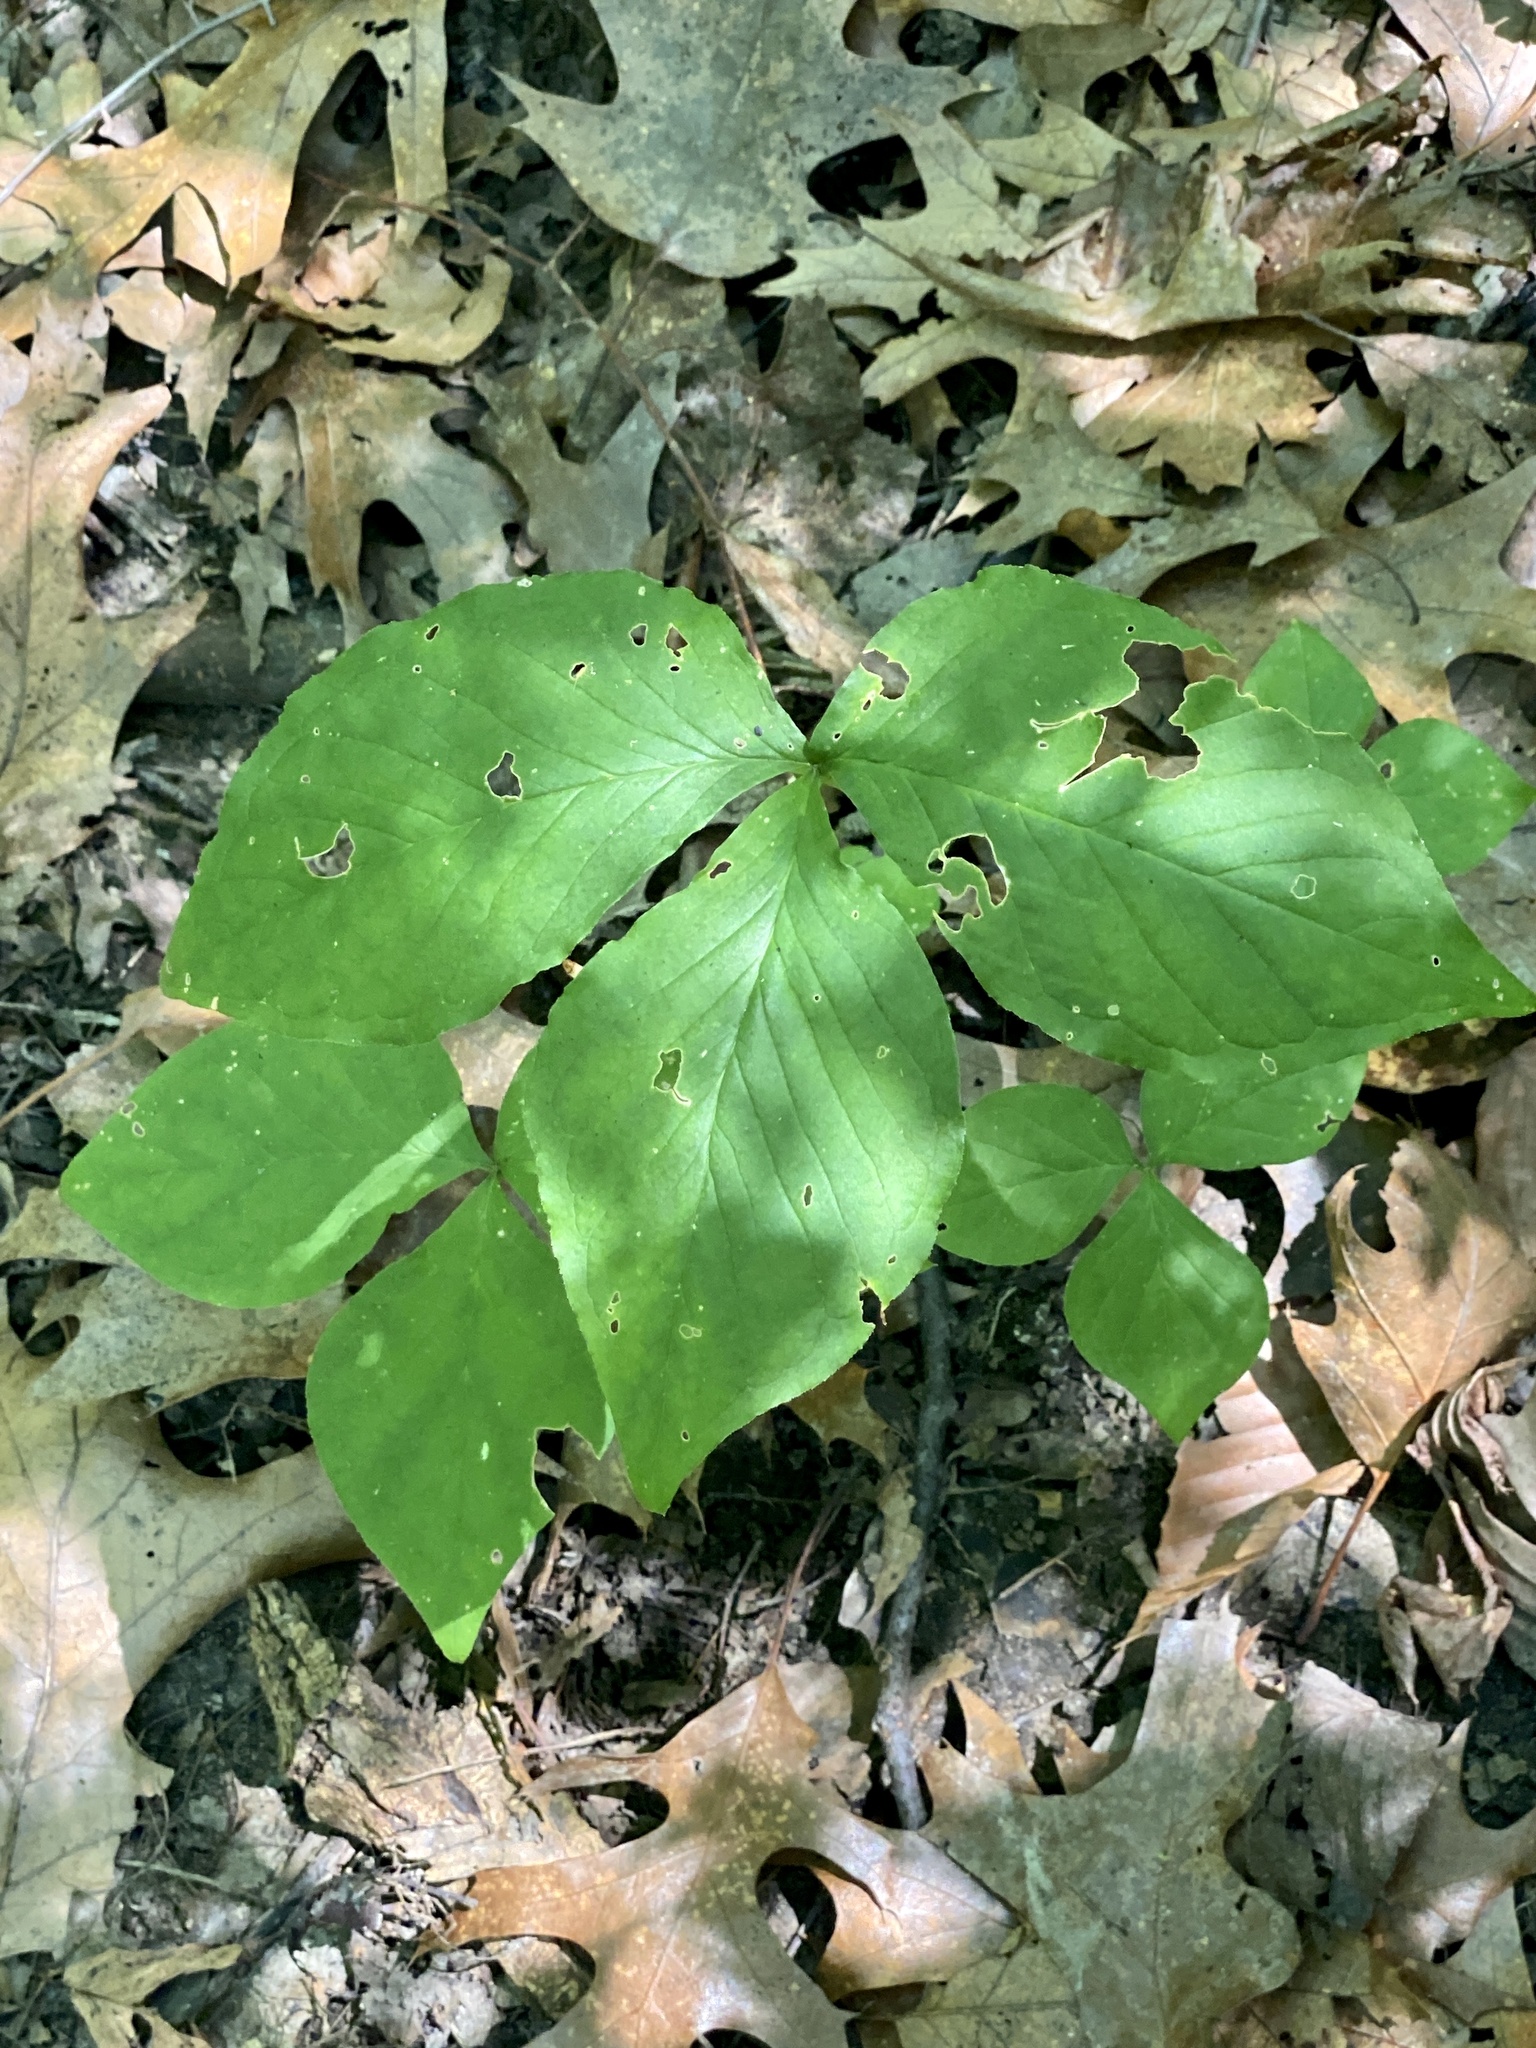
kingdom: Plantae
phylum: Tracheophyta
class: Liliopsida
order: Alismatales
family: Araceae
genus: Arisaema
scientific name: Arisaema triphyllum
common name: Jack-in-the-pulpit
